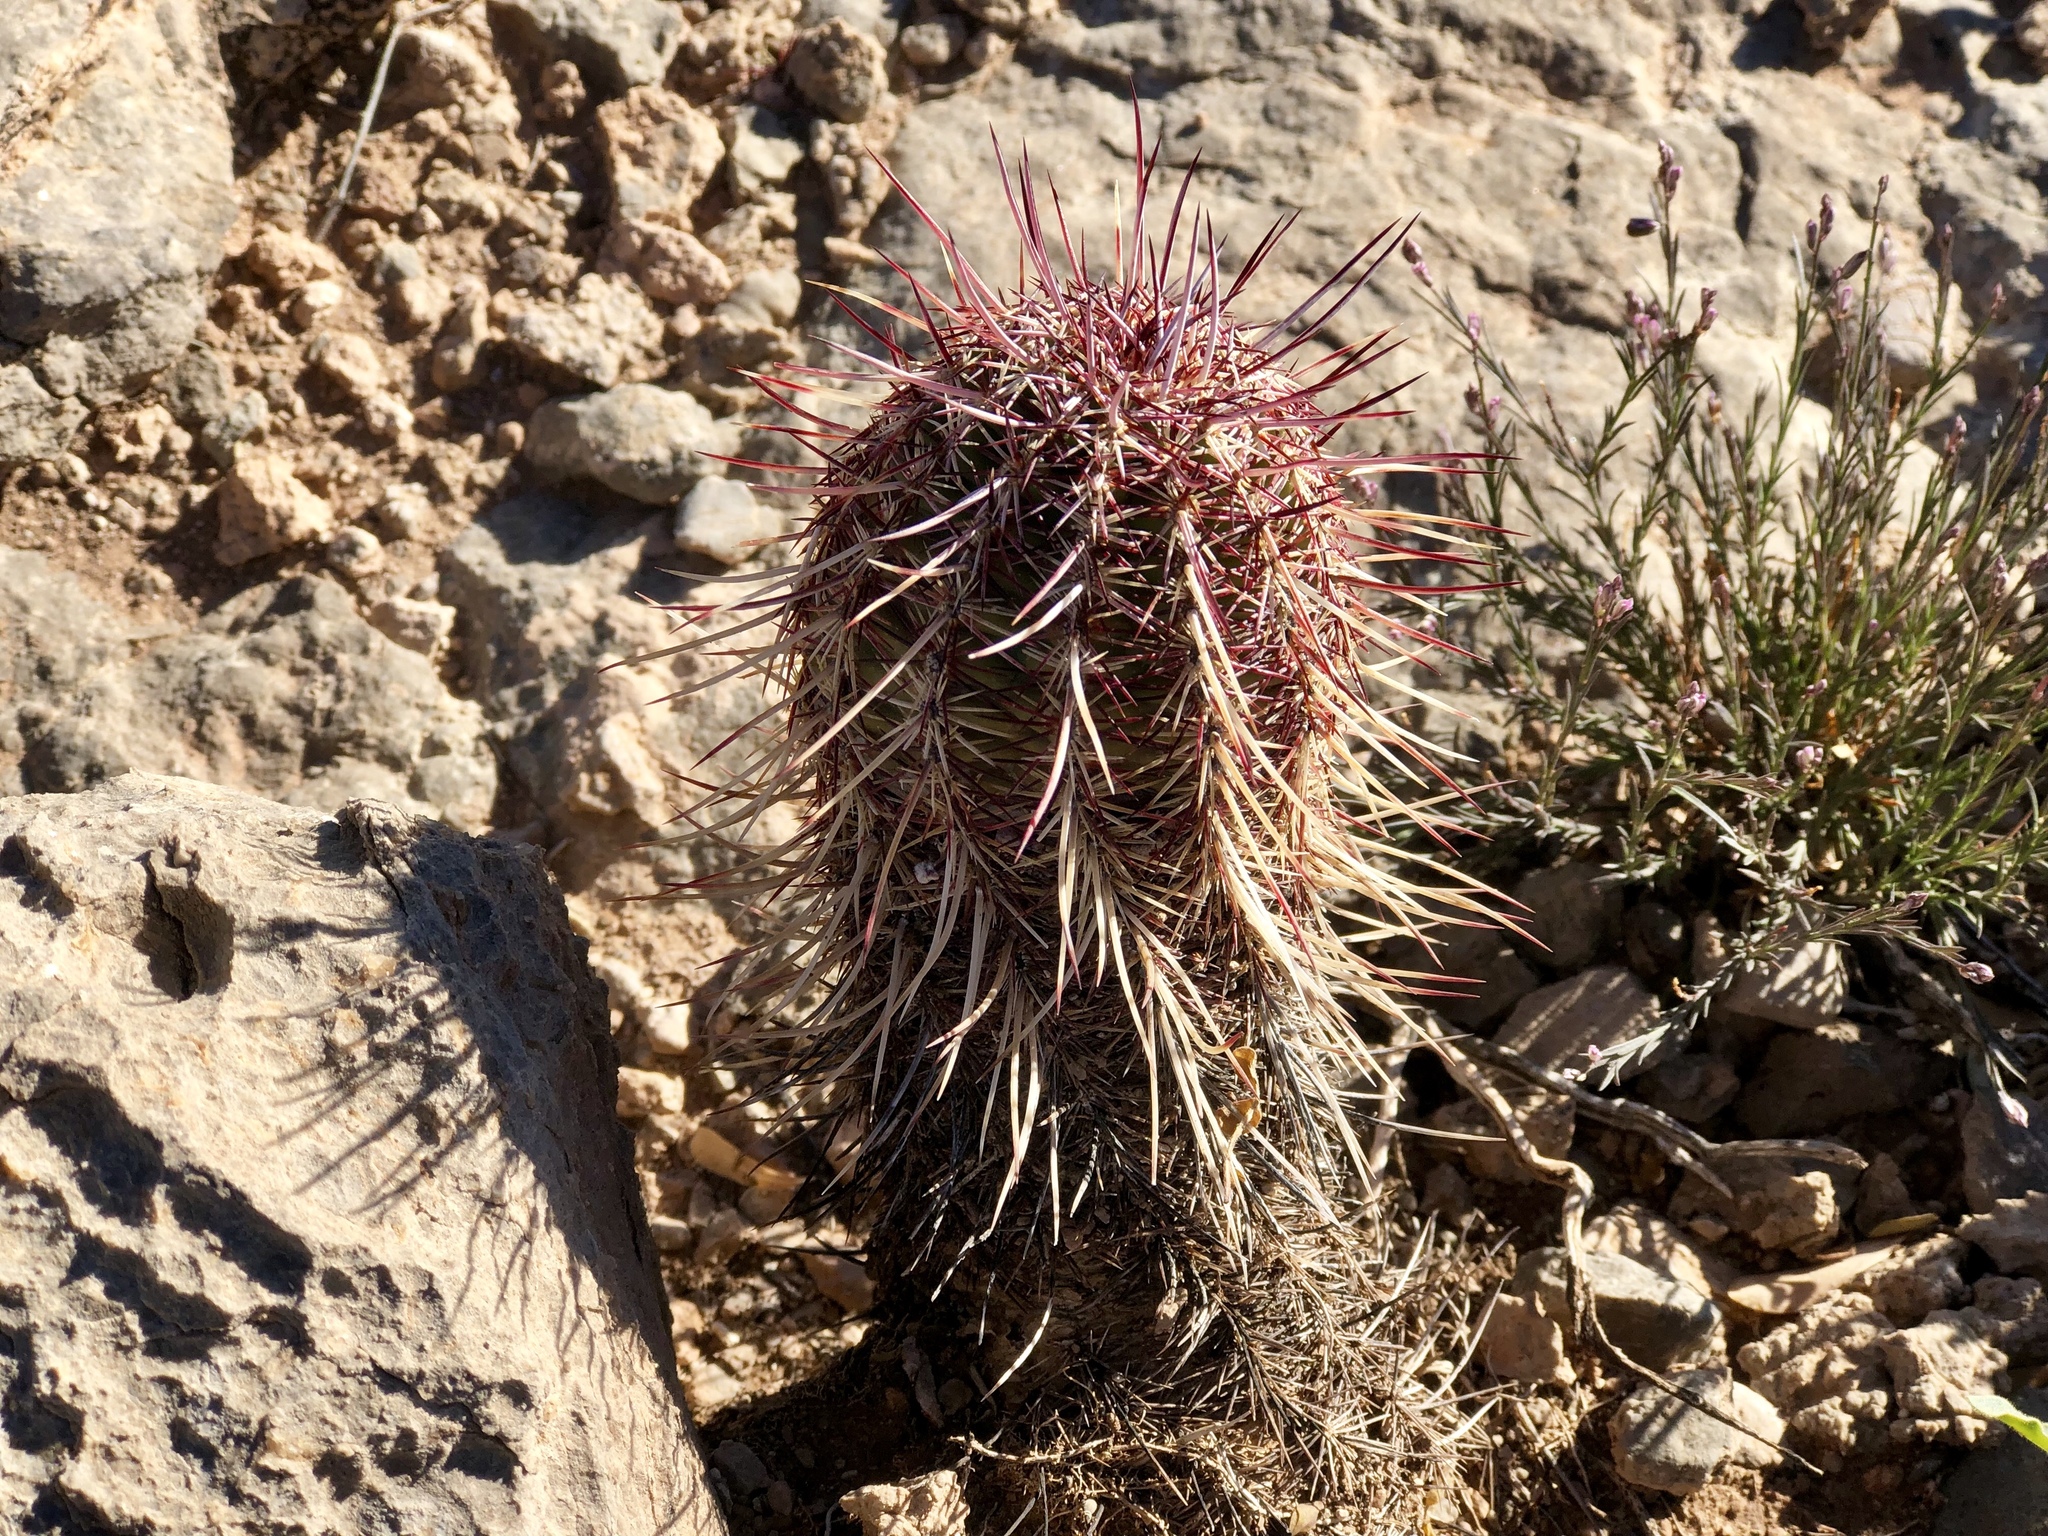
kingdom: Plantae
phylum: Tracheophyta
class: Magnoliopsida
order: Caryophyllales
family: Cactaceae
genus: Echinocereus
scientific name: Echinocereus viridiflorus
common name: Nylon hedgehog cactus
